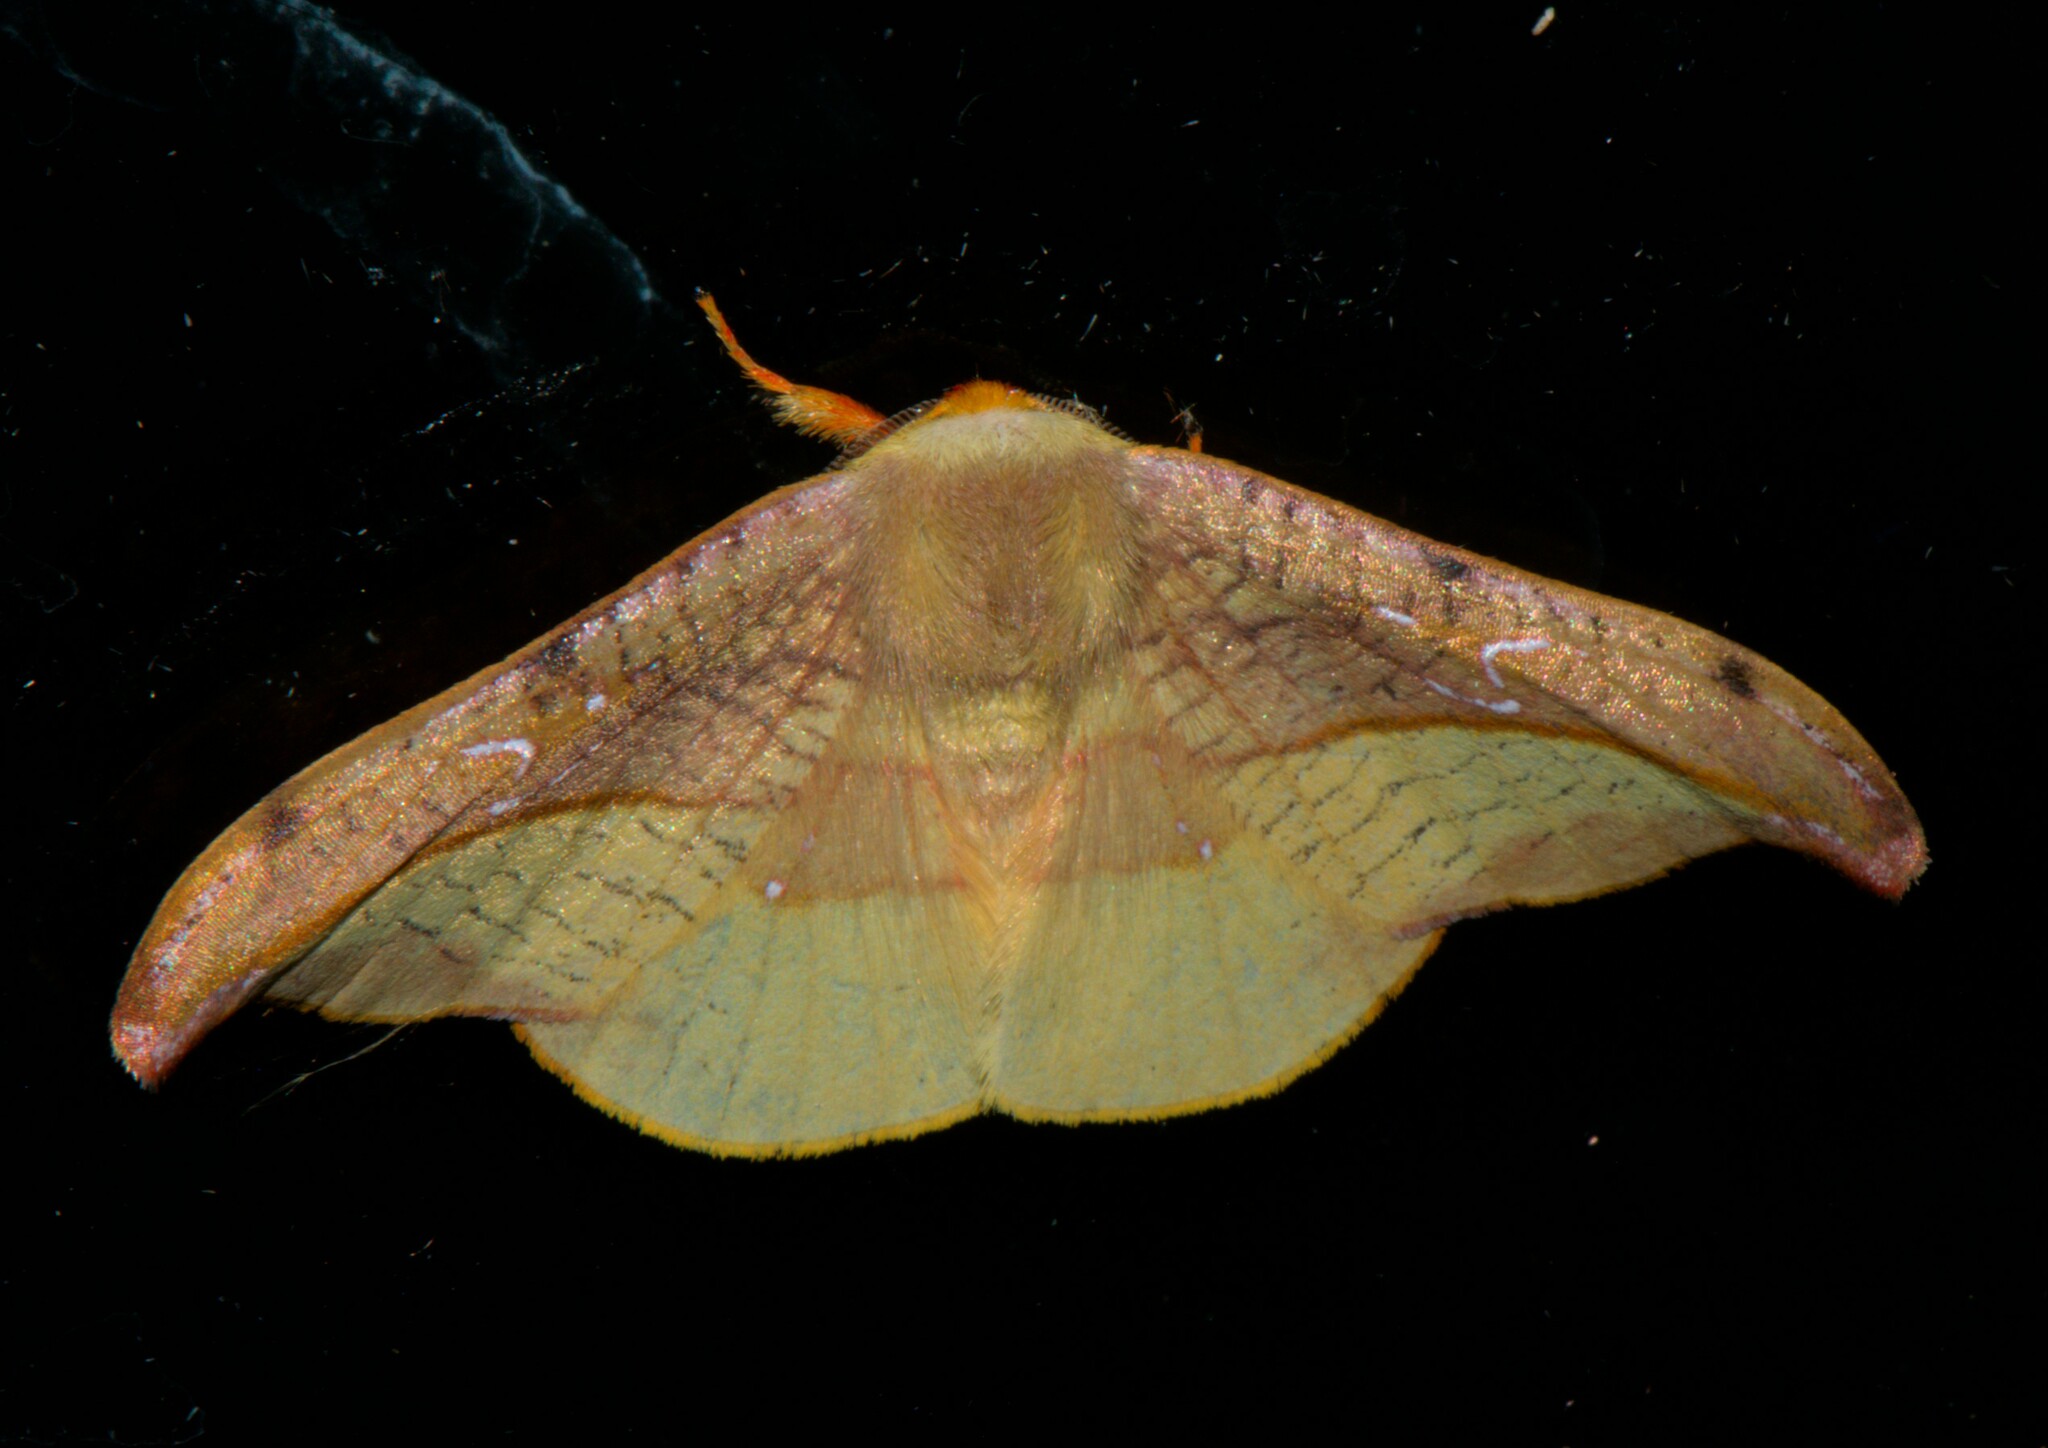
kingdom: Animalia
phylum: Arthropoda
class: Insecta
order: Lepidoptera
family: Drepanidae
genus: Oreta
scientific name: Oreta vatama
